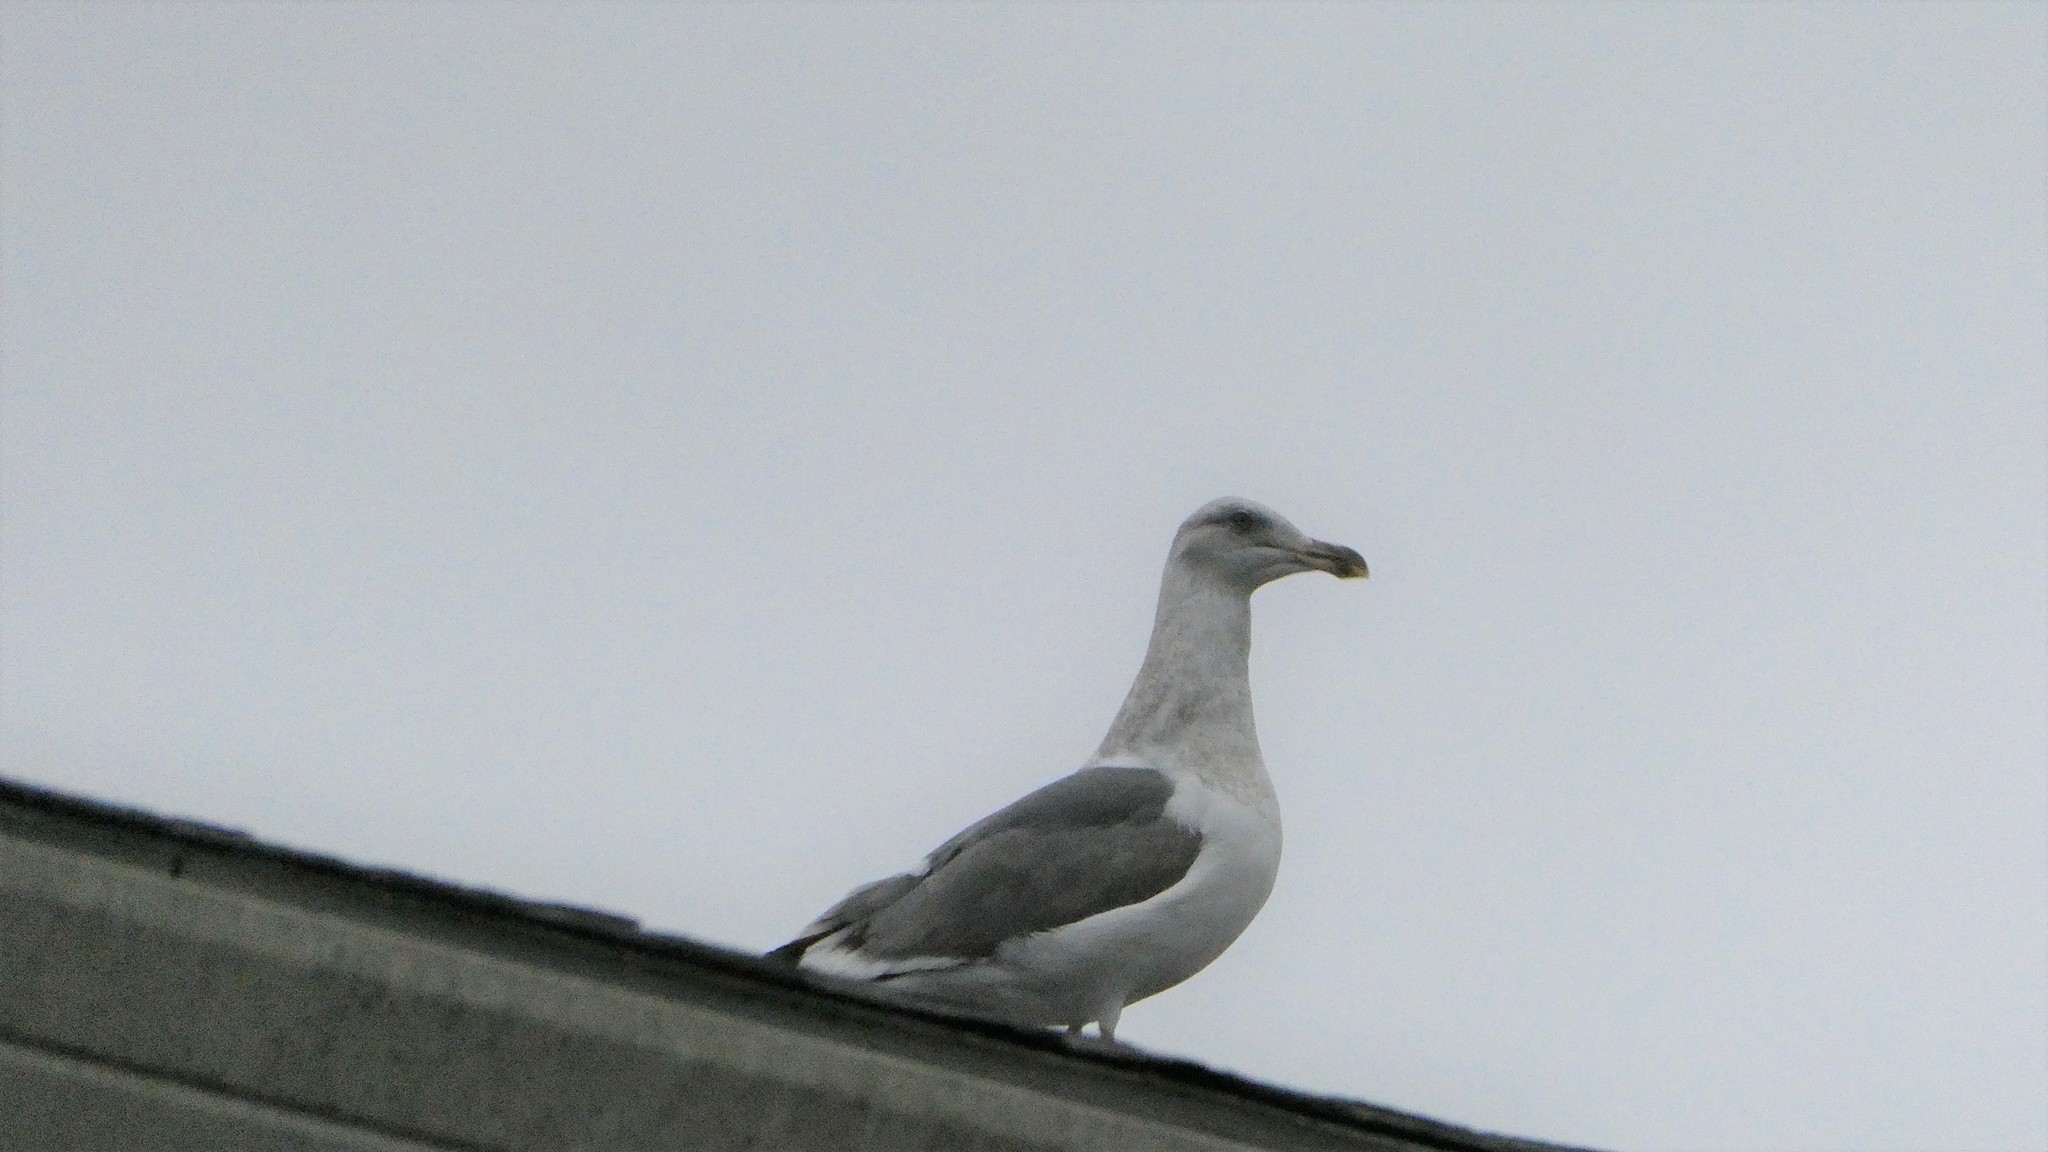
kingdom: Animalia
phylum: Chordata
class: Aves
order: Charadriiformes
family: Laridae
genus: Larus
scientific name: Larus occidentalis
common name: Western gull
